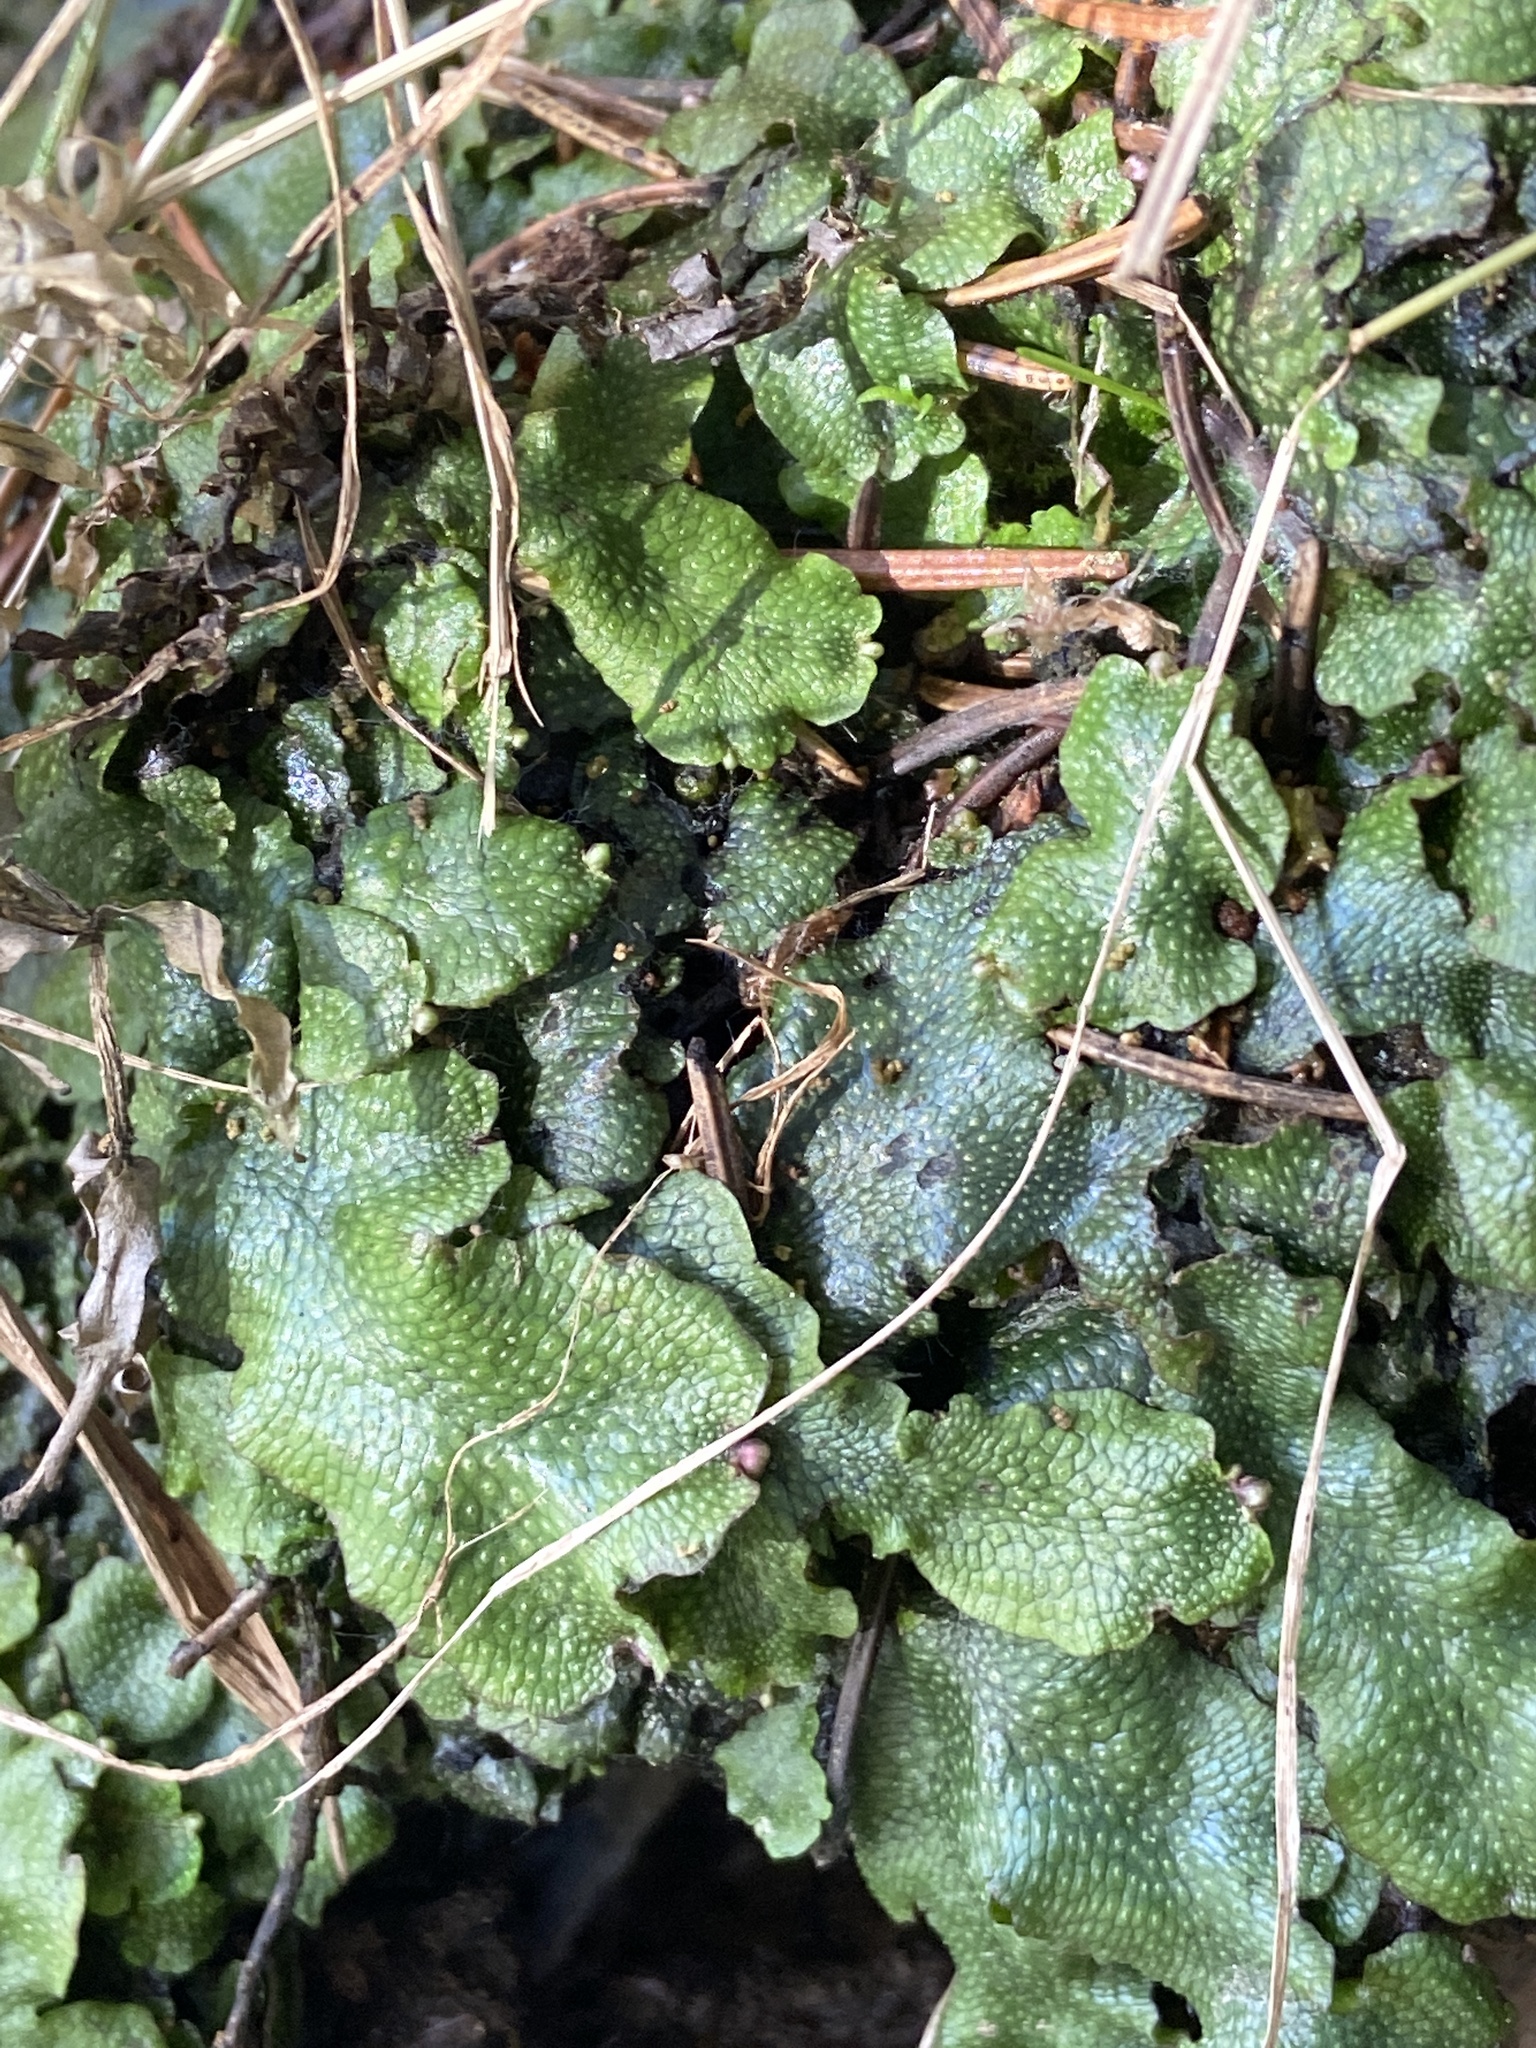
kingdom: Plantae
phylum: Marchantiophyta
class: Marchantiopsida
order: Marchantiales
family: Conocephalaceae
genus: Conocephalum
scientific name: Conocephalum salebrosum
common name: Cat-tongue liverwort
